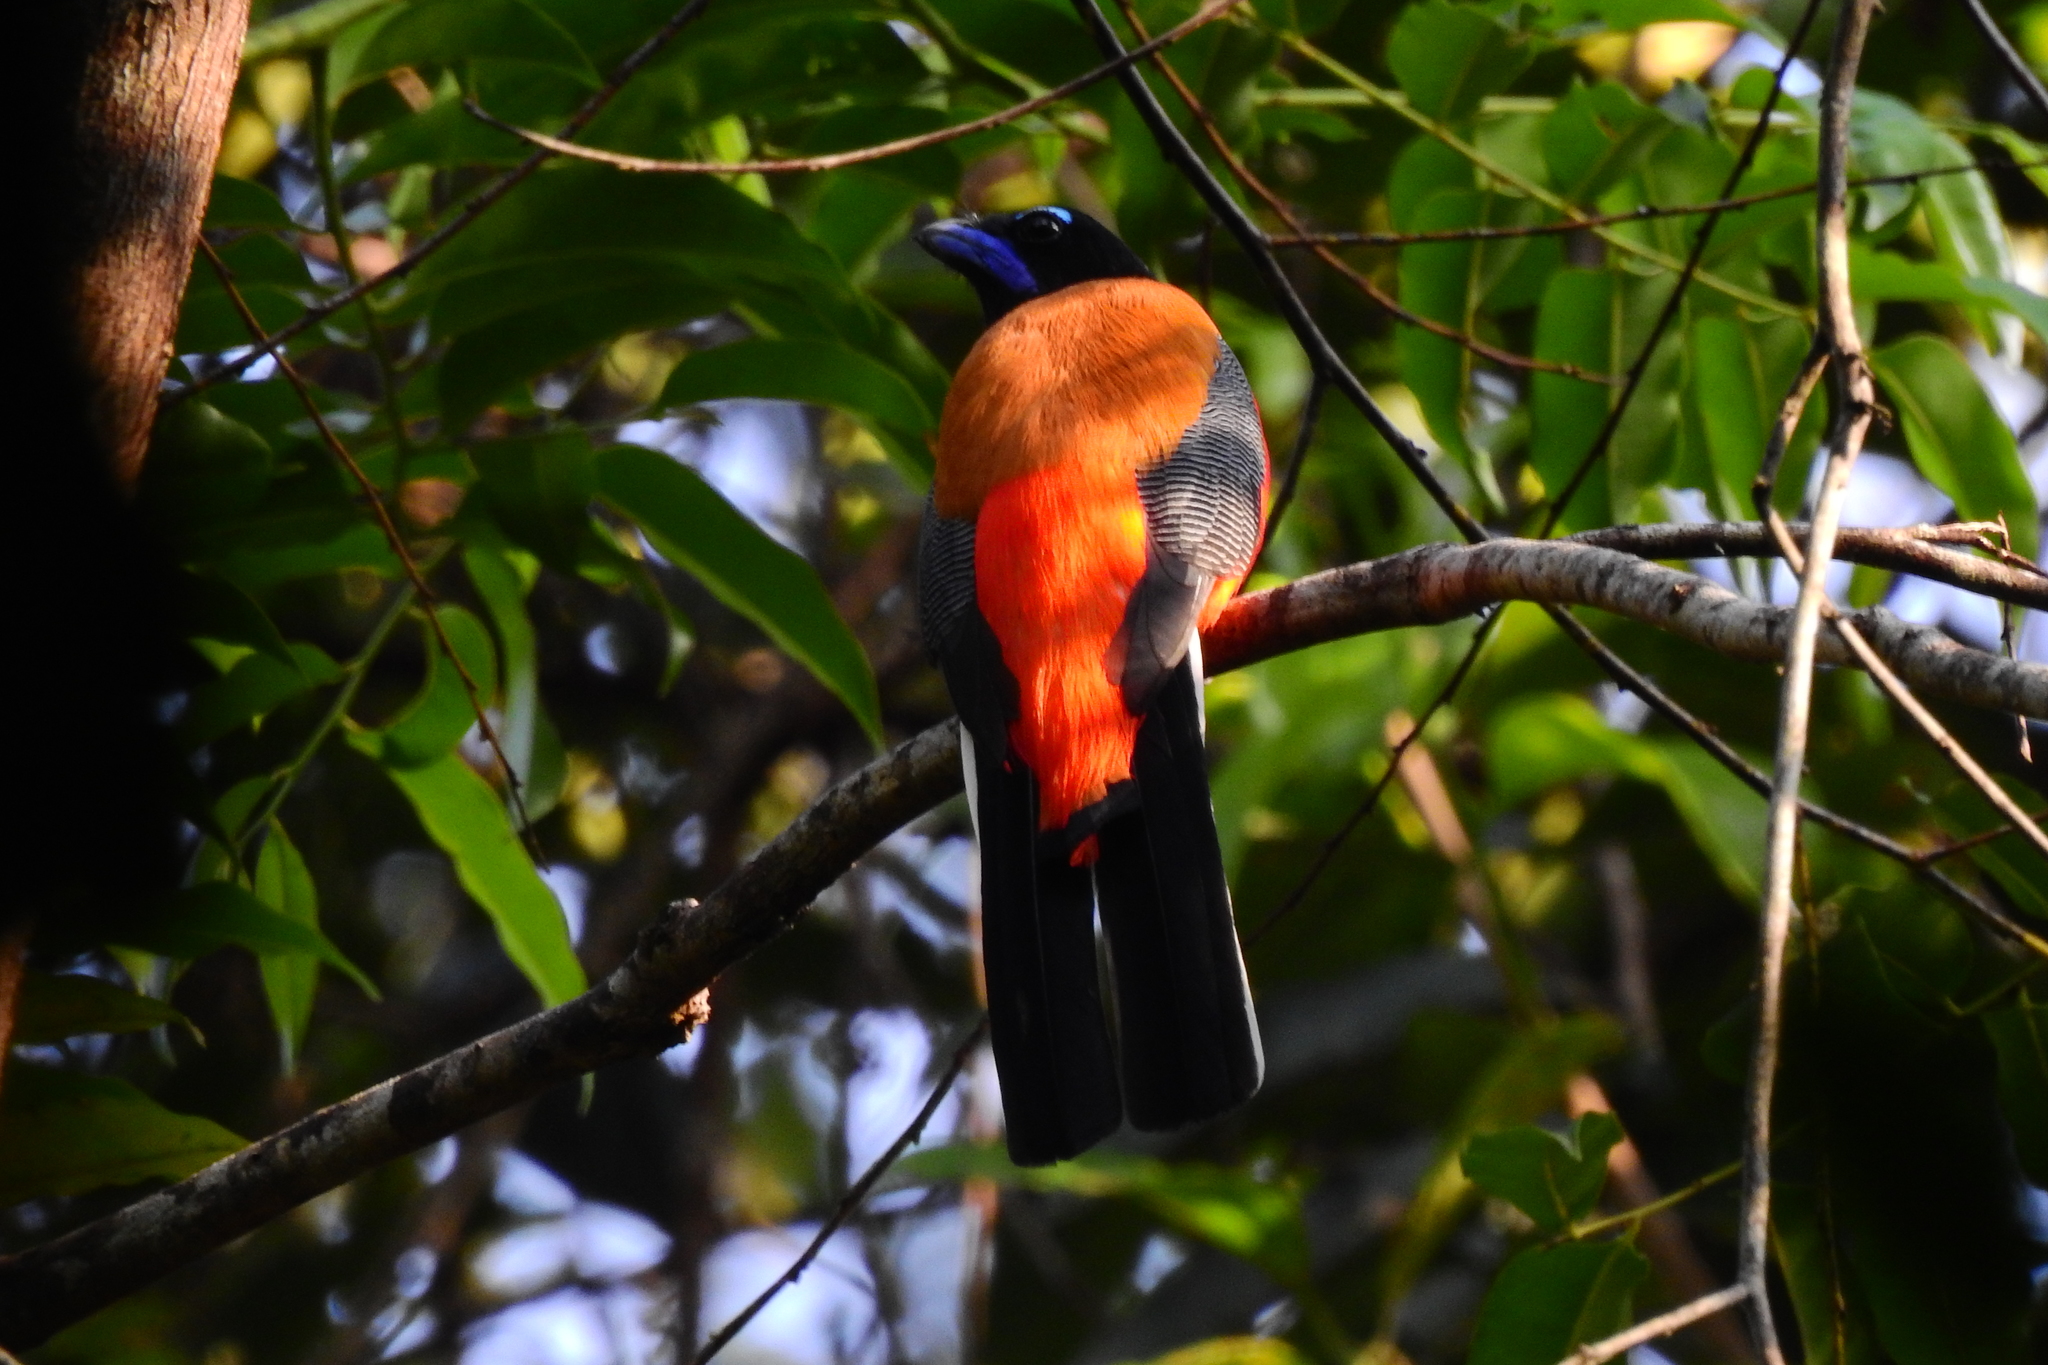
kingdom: Animalia
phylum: Chordata
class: Aves
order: Trogoniformes
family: Trogonidae
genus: Harpactes
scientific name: Harpactes duvaucelii
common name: Scarlet-rumped trogon
